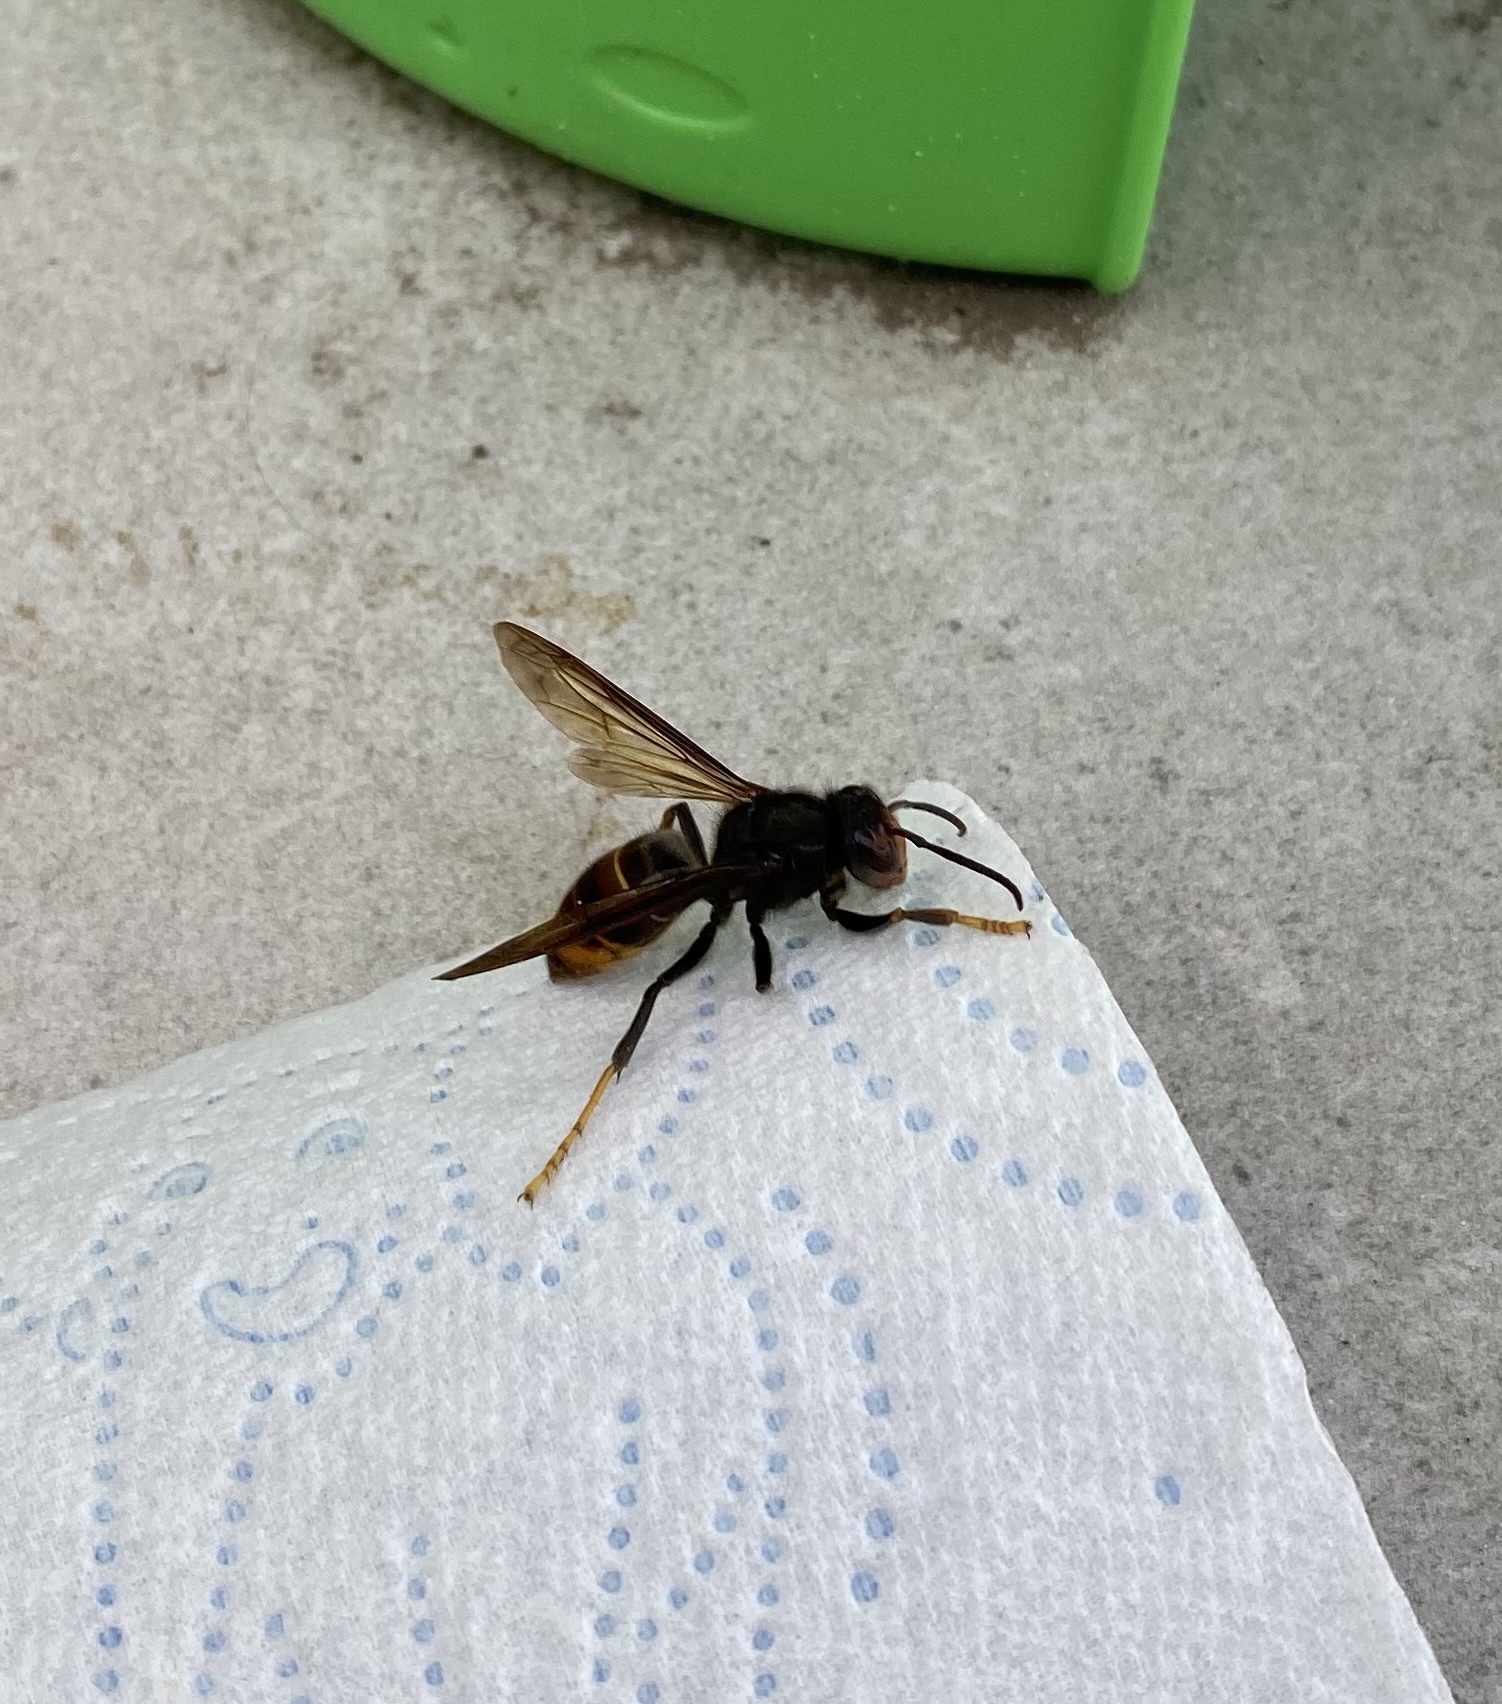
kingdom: Animalia
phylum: Arthropoda
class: Insecta
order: Hymenoptera
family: Vespidae
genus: Vespa
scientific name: Vespa velutina
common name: Asian hornet
